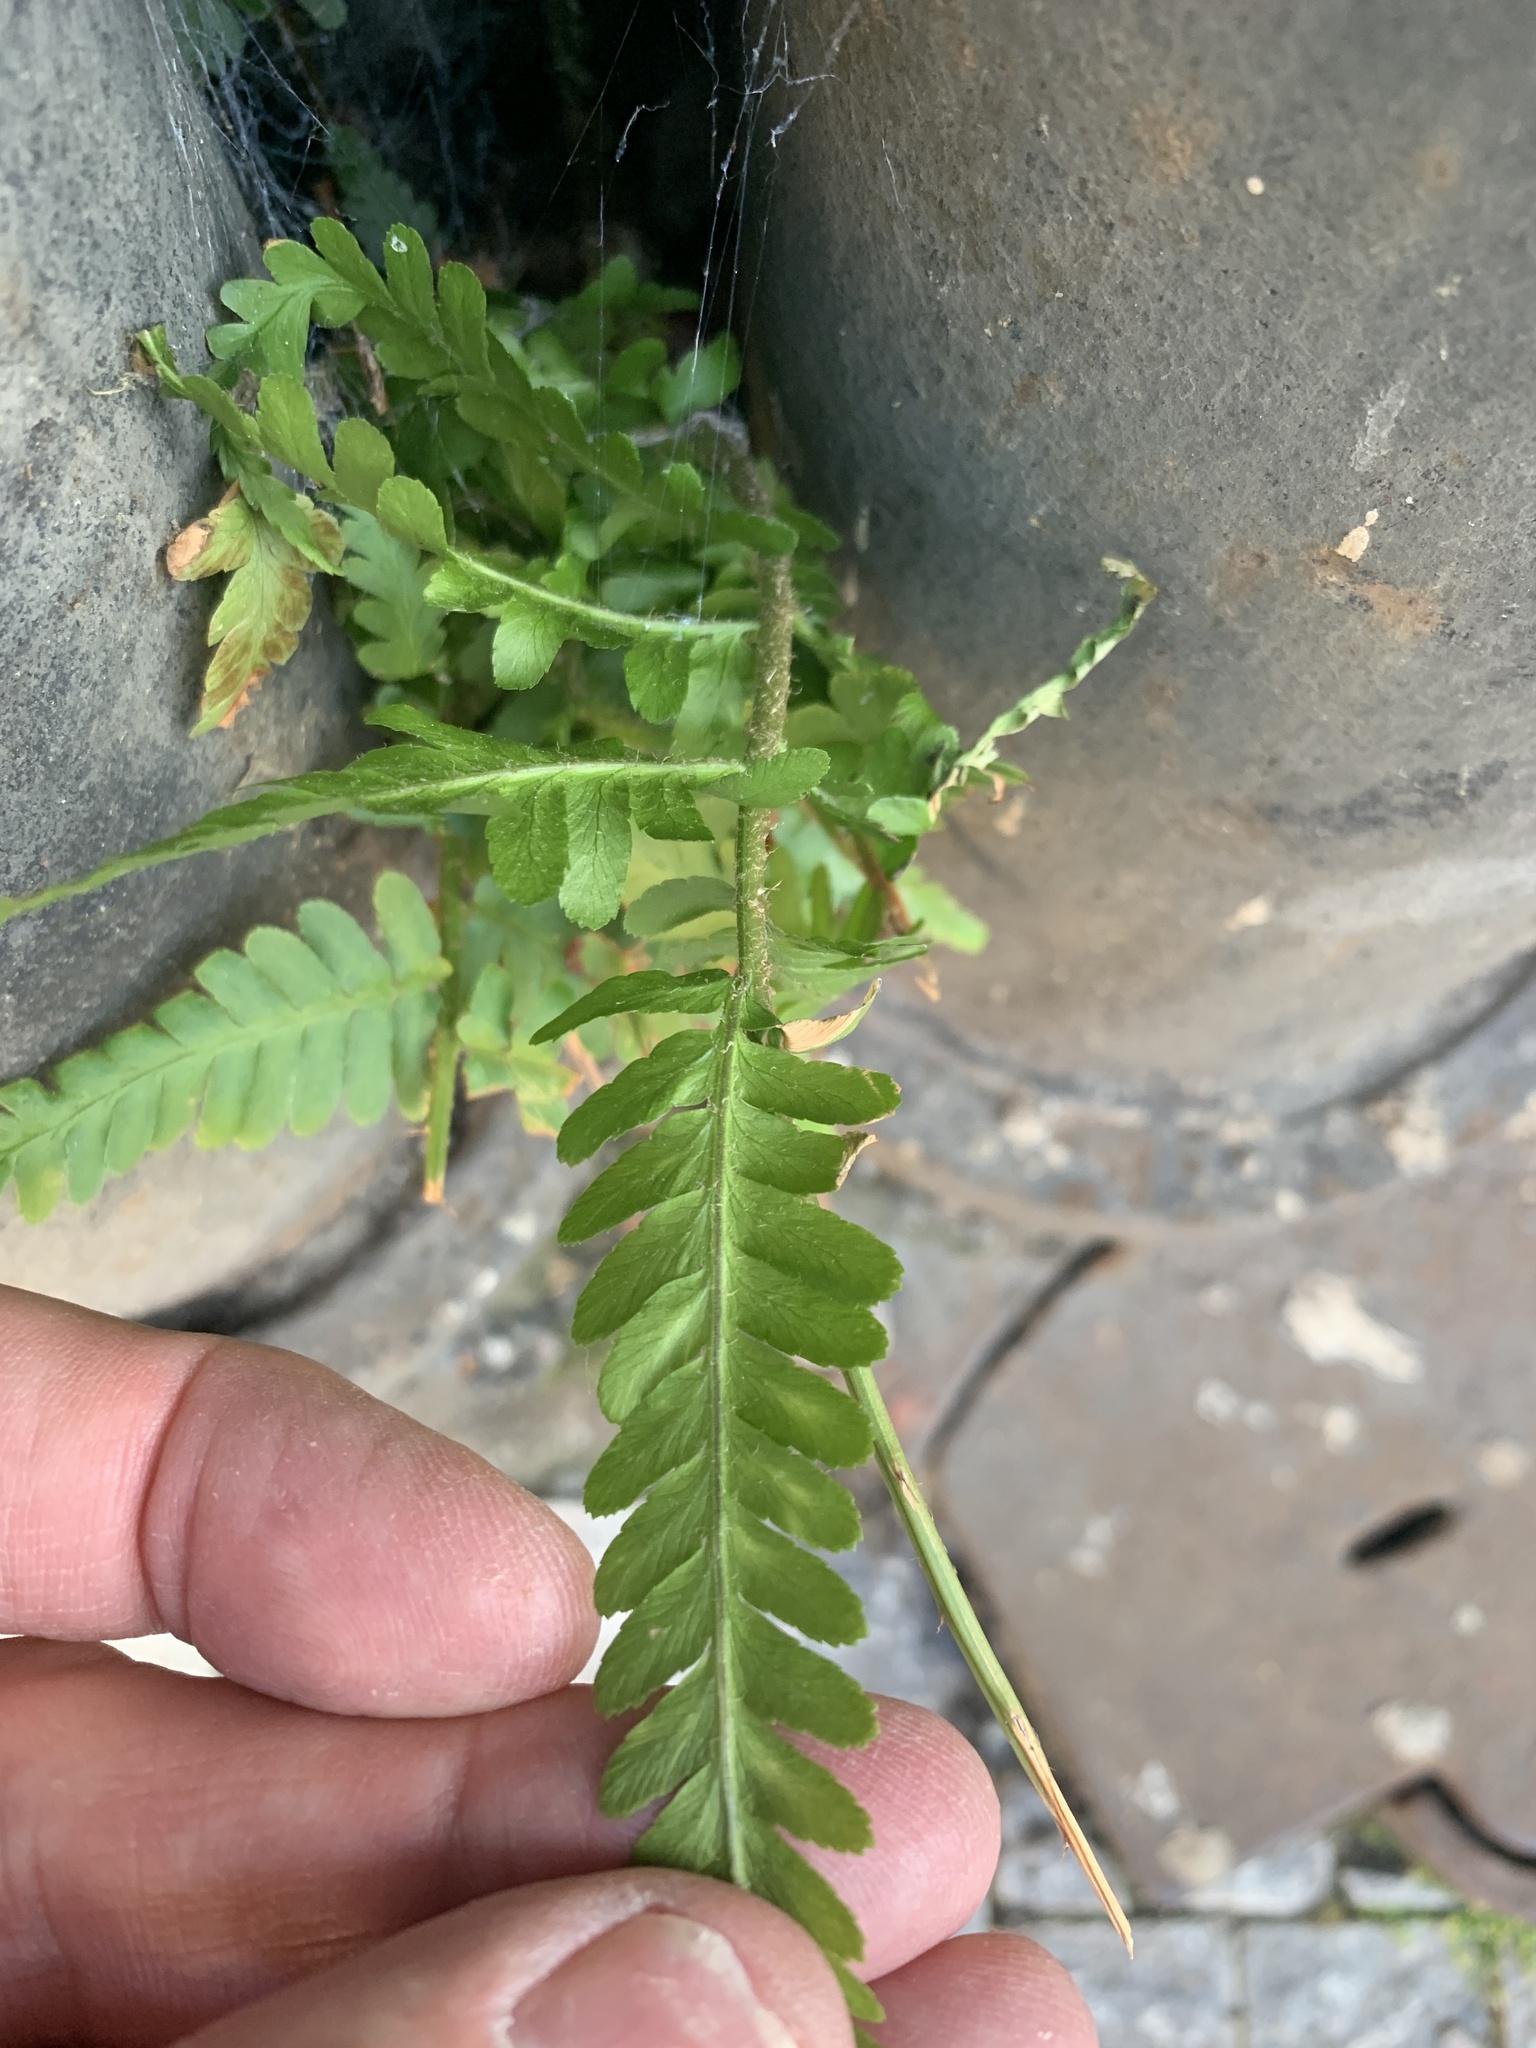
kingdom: Plantae
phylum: Tracheophyta
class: Polypodiopsida
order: Polypodiales
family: Dryopteridaceae
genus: Dryopteris
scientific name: Dryopteris filix-mas
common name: Male fern
